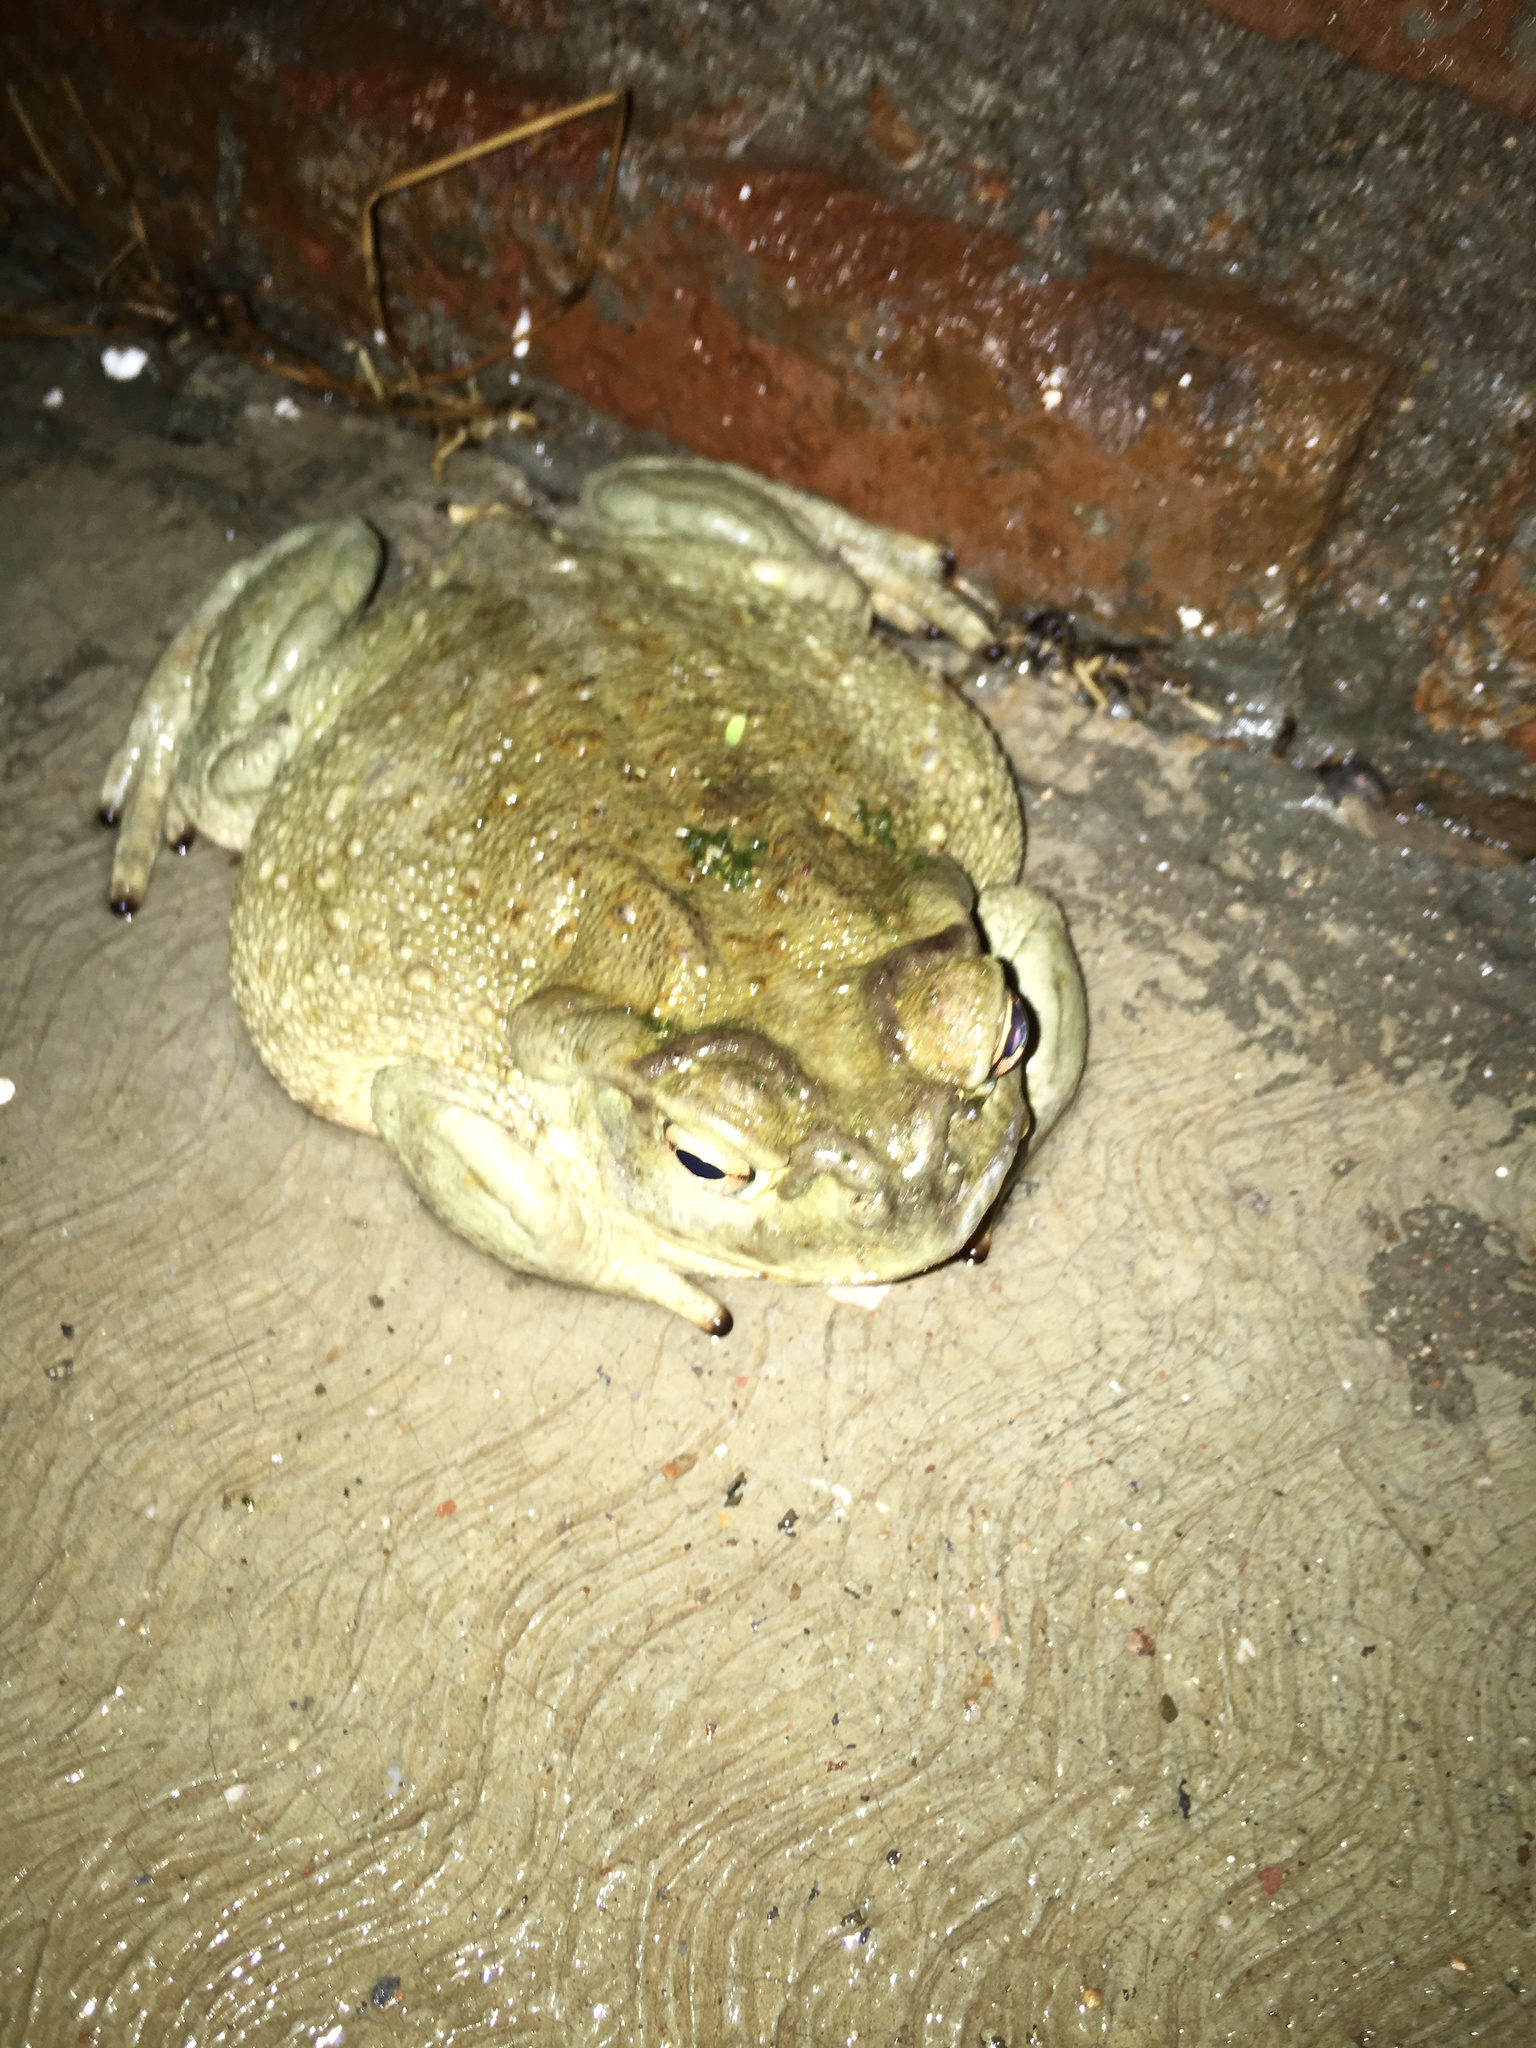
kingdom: Animalia
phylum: Chordata
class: Amphibia
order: Anura
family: Bufonidae
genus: Incilius
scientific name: Incilius alvarius
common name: Sonoran desert toad
